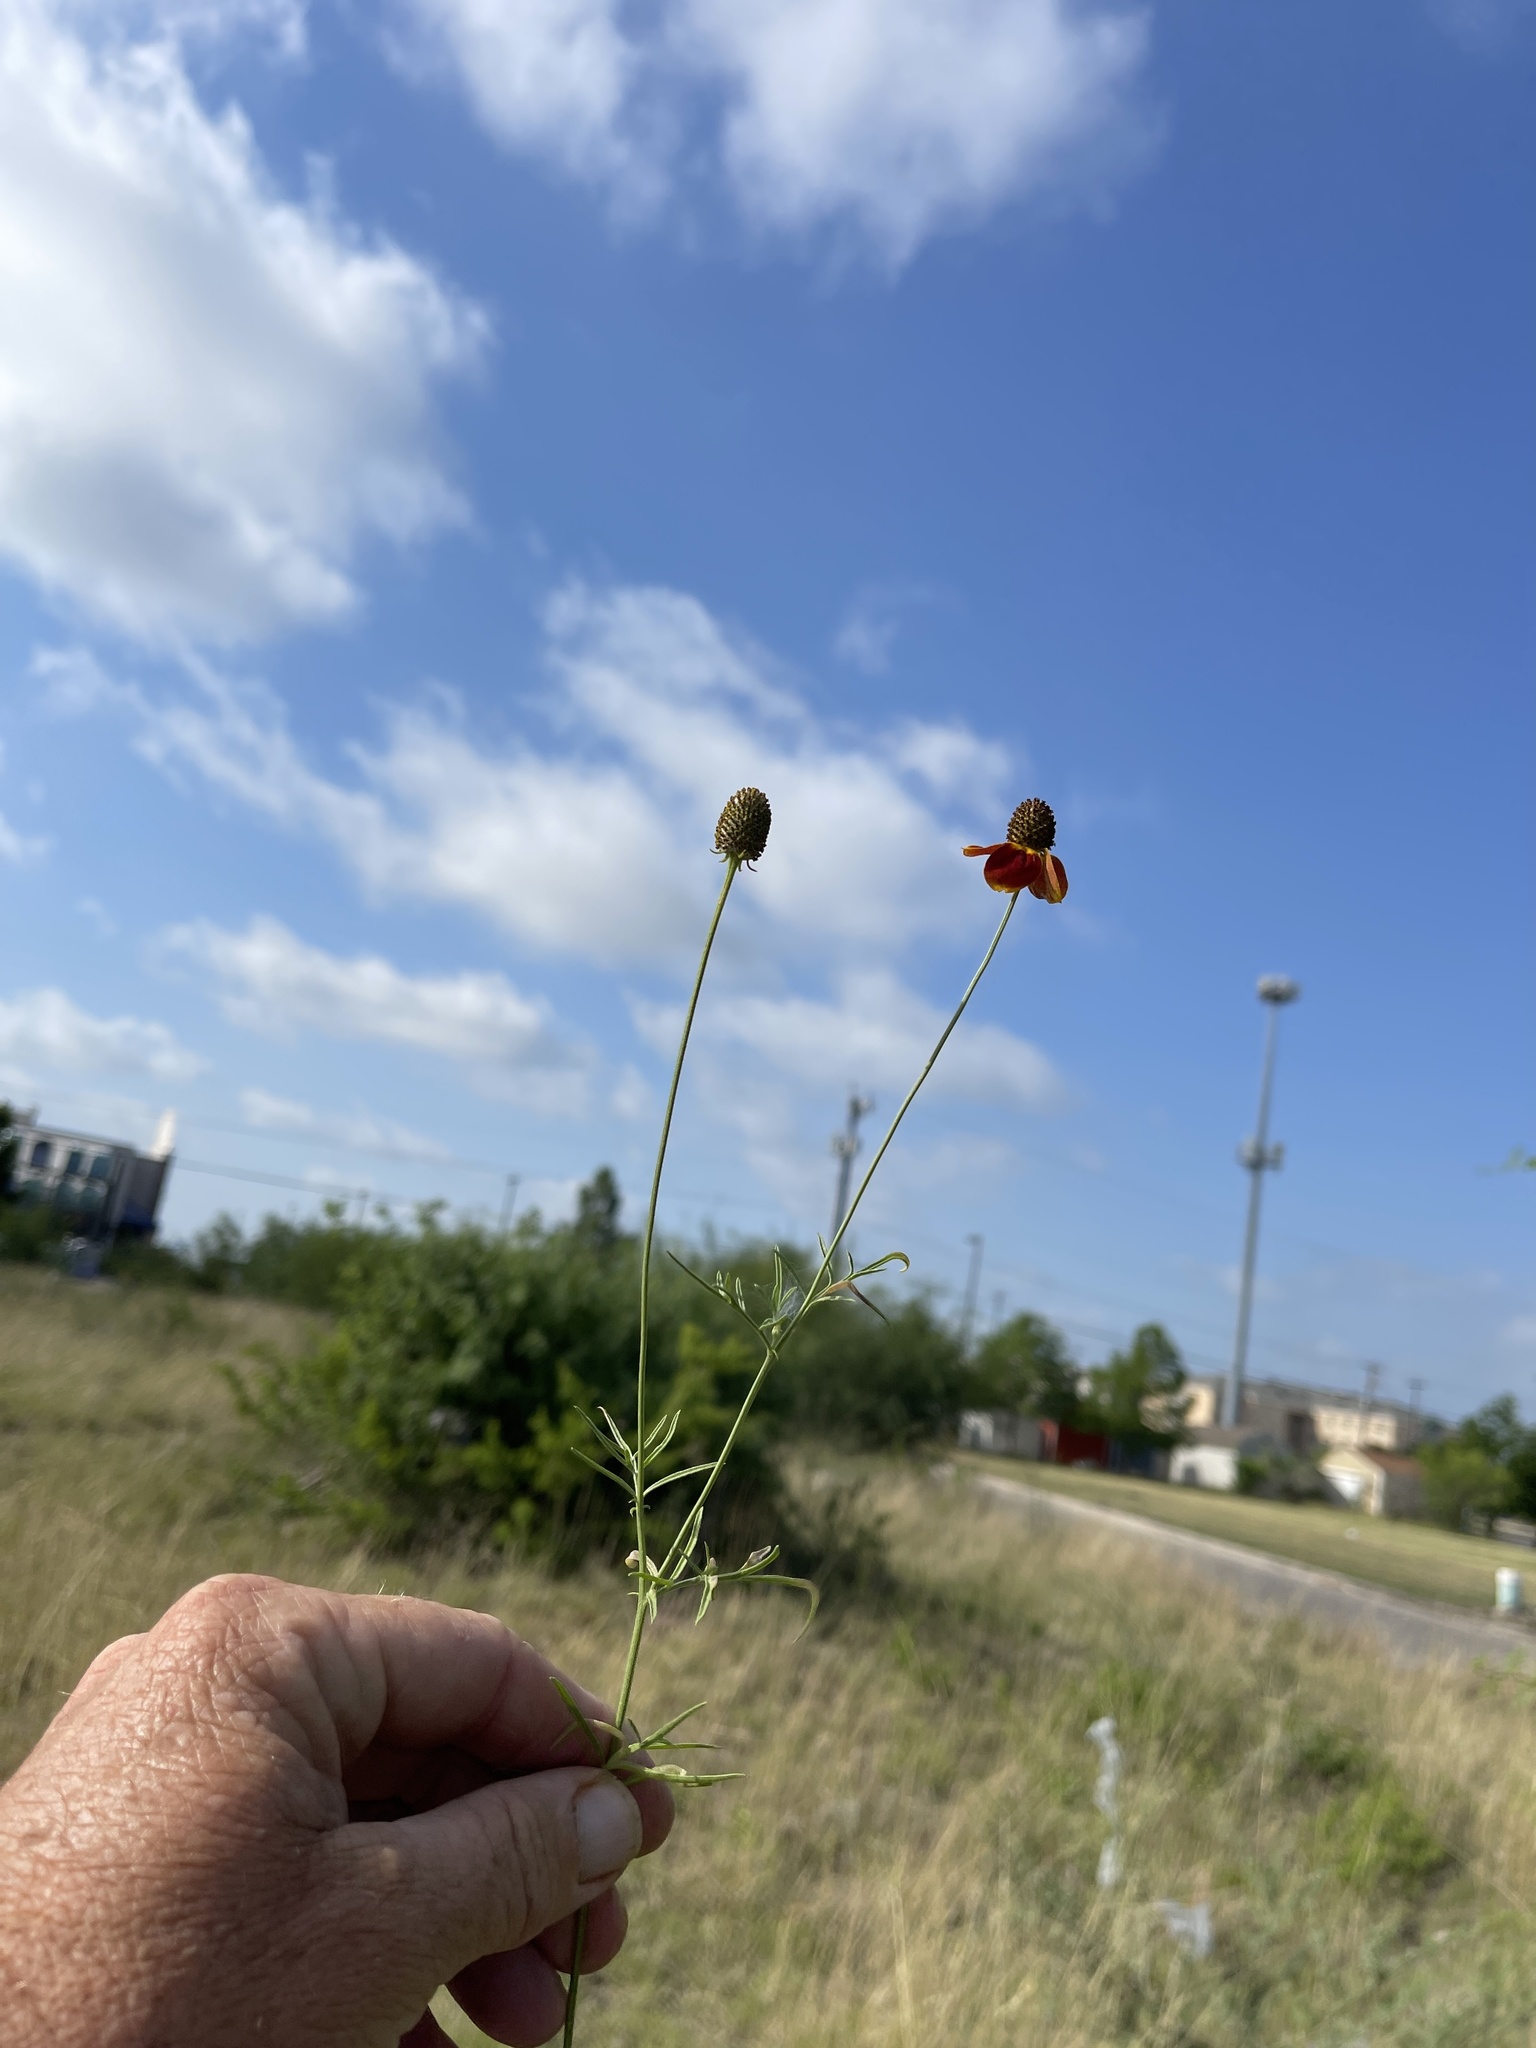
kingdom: Plantae
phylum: Tracheophyta
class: Magnoliopsida
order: Asterales
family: Asteraceae
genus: Ratibida
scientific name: Ratibida columnifera
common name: Prairie coneflower
